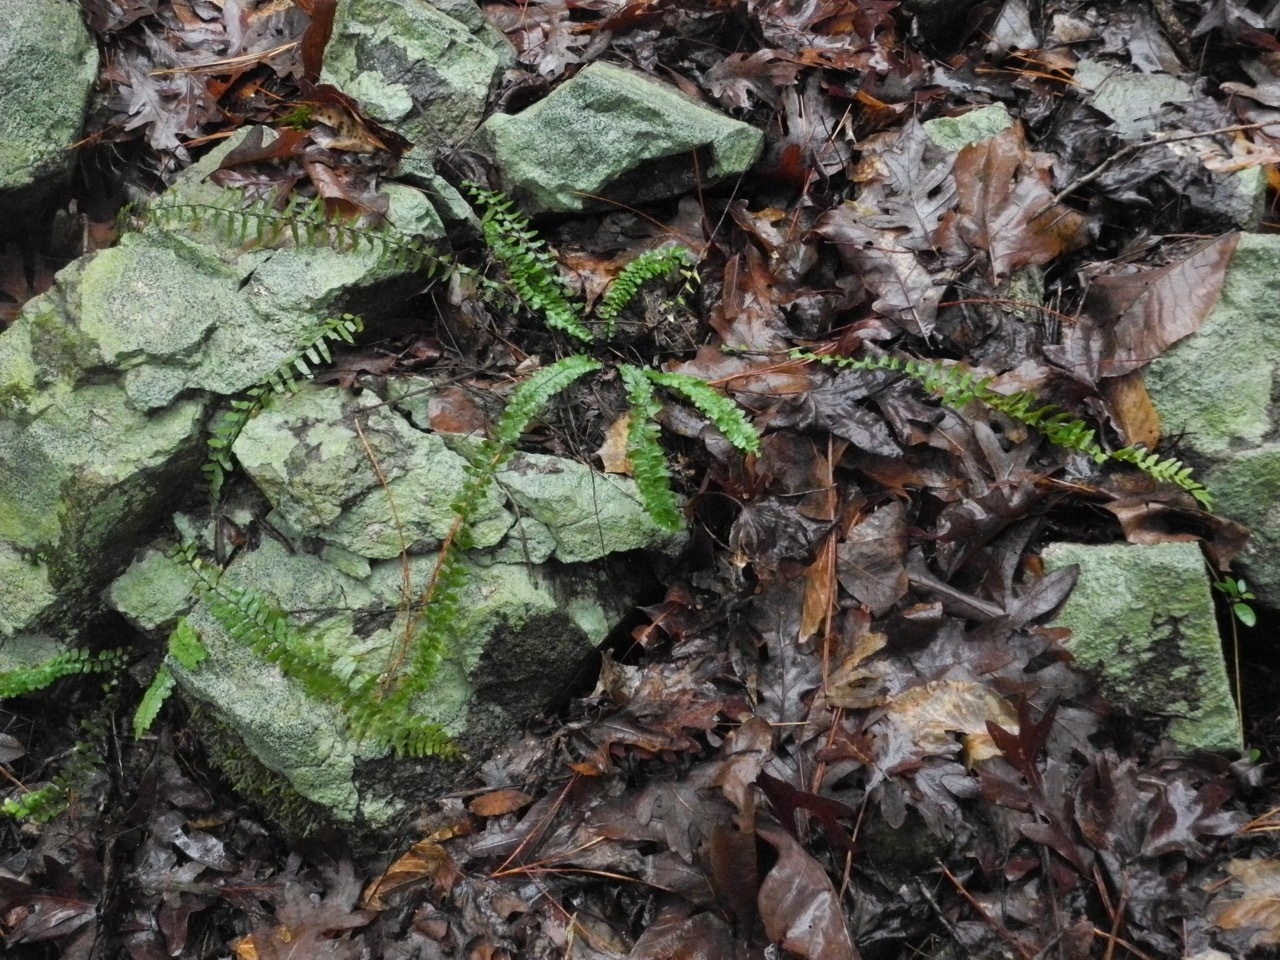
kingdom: Plantae
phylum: Tracheophyta
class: Polypodiopsida
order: Polypodiales
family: Aspleniaceae
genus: Asplenium
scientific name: Asplenium platyneuron
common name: Ebony spleenwort
